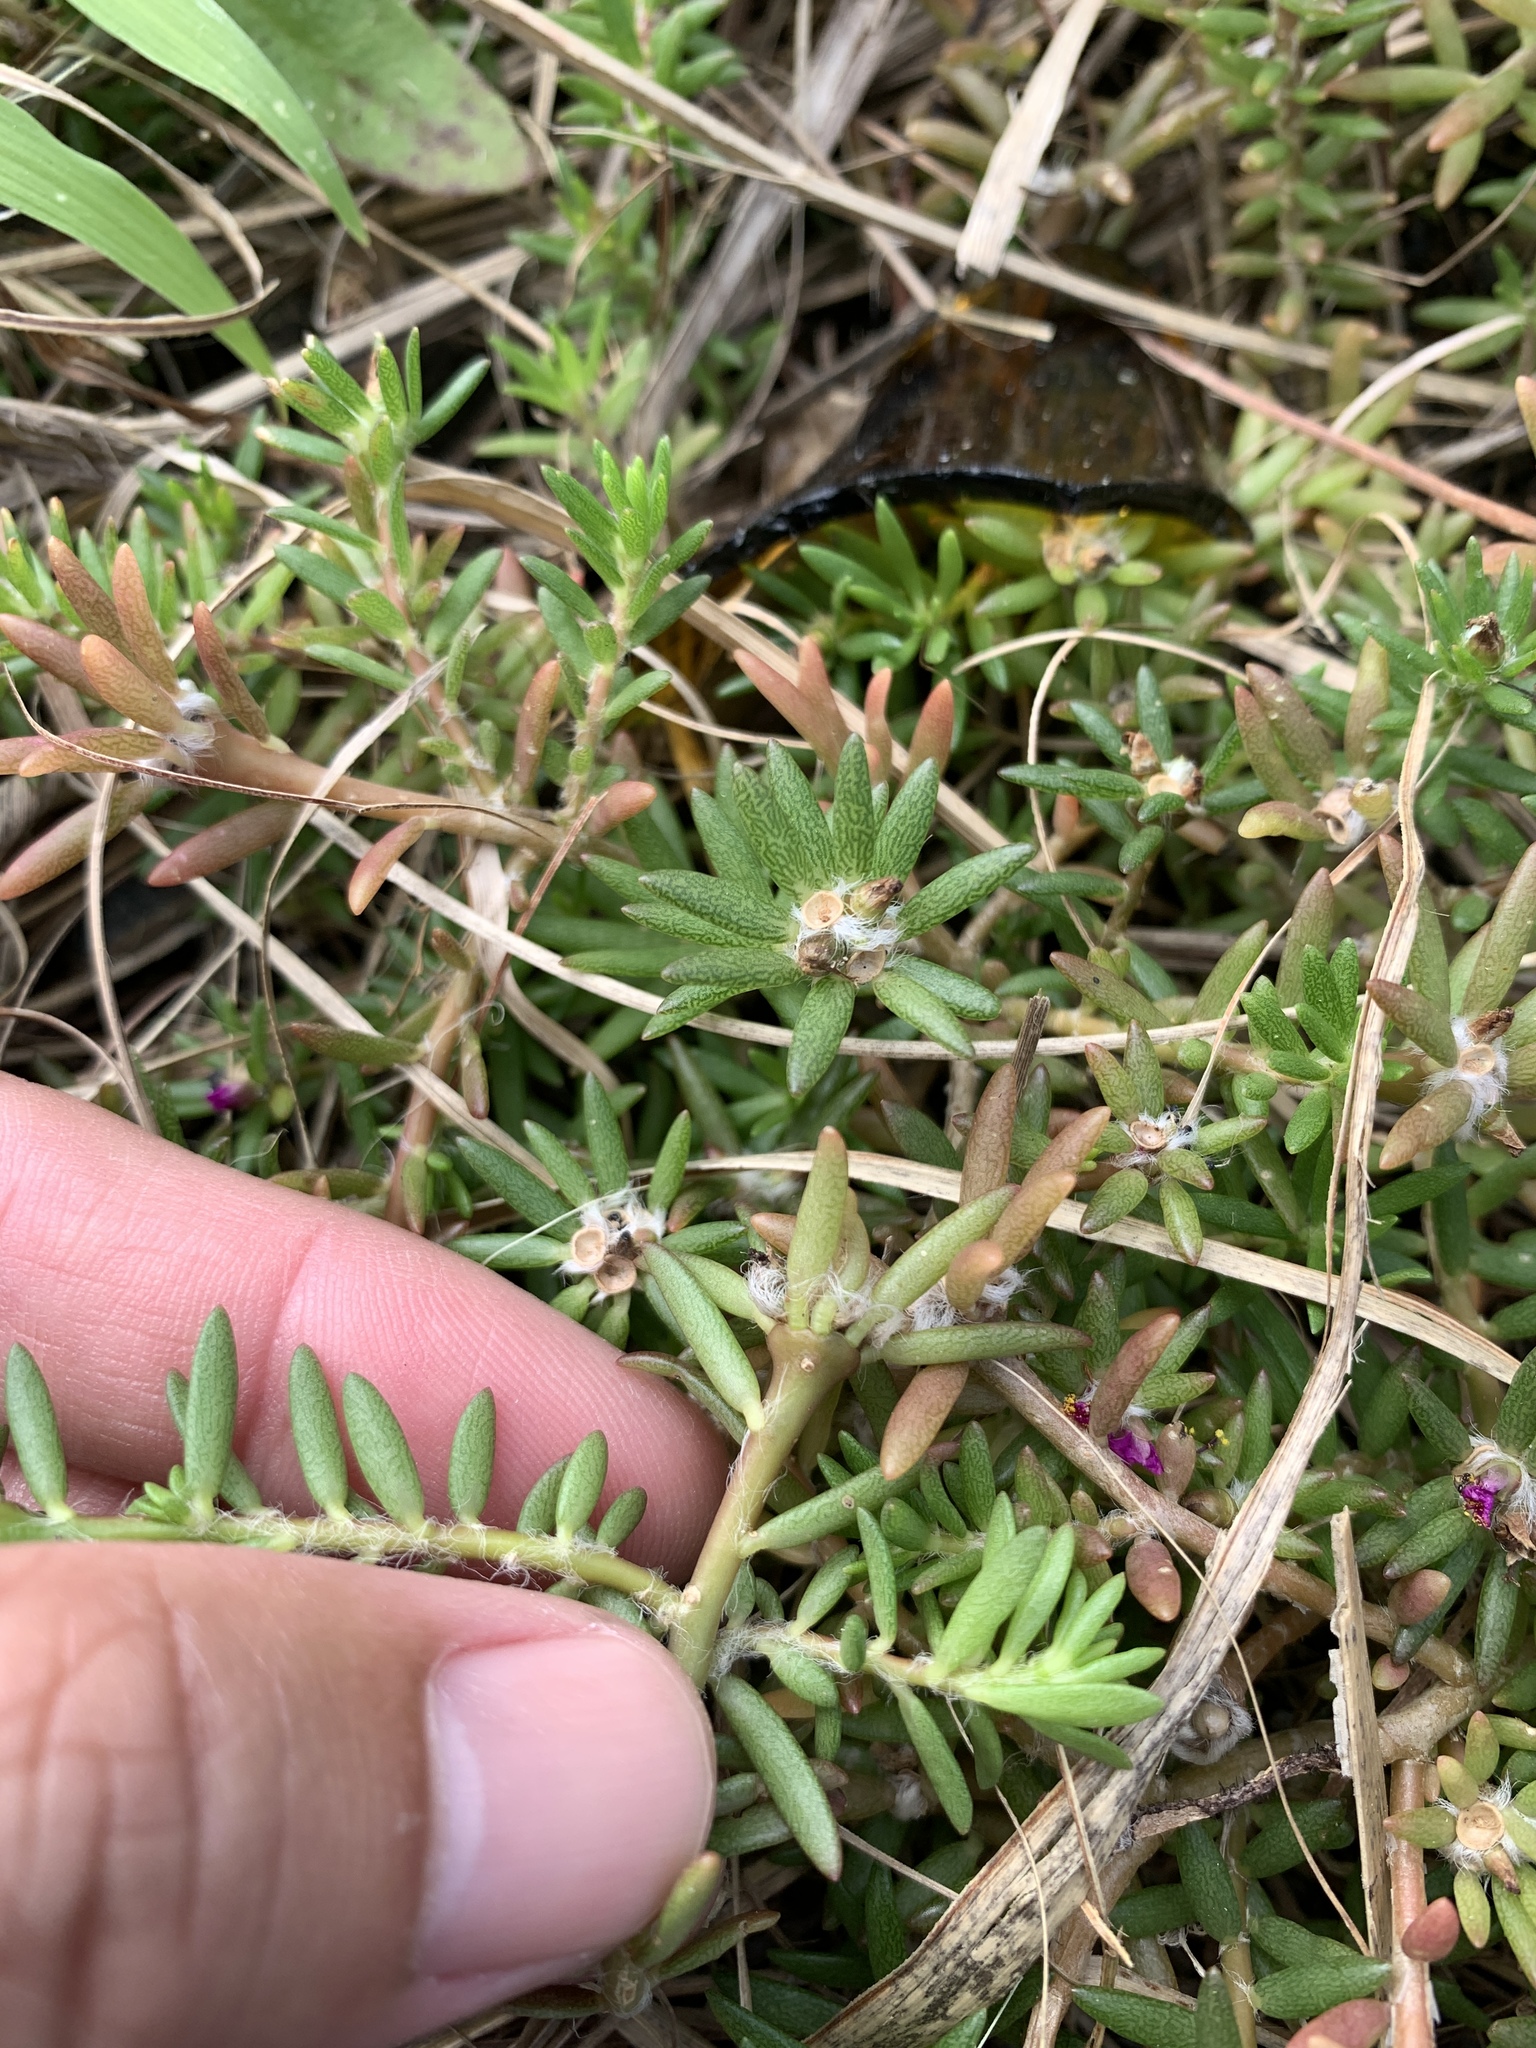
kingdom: Plantae
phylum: Tracheophyta
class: Magnoliopsida
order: Caryophyllales
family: Portulacaceae
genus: Portulaca
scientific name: Portulaca pilosa
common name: Kiss me quick
